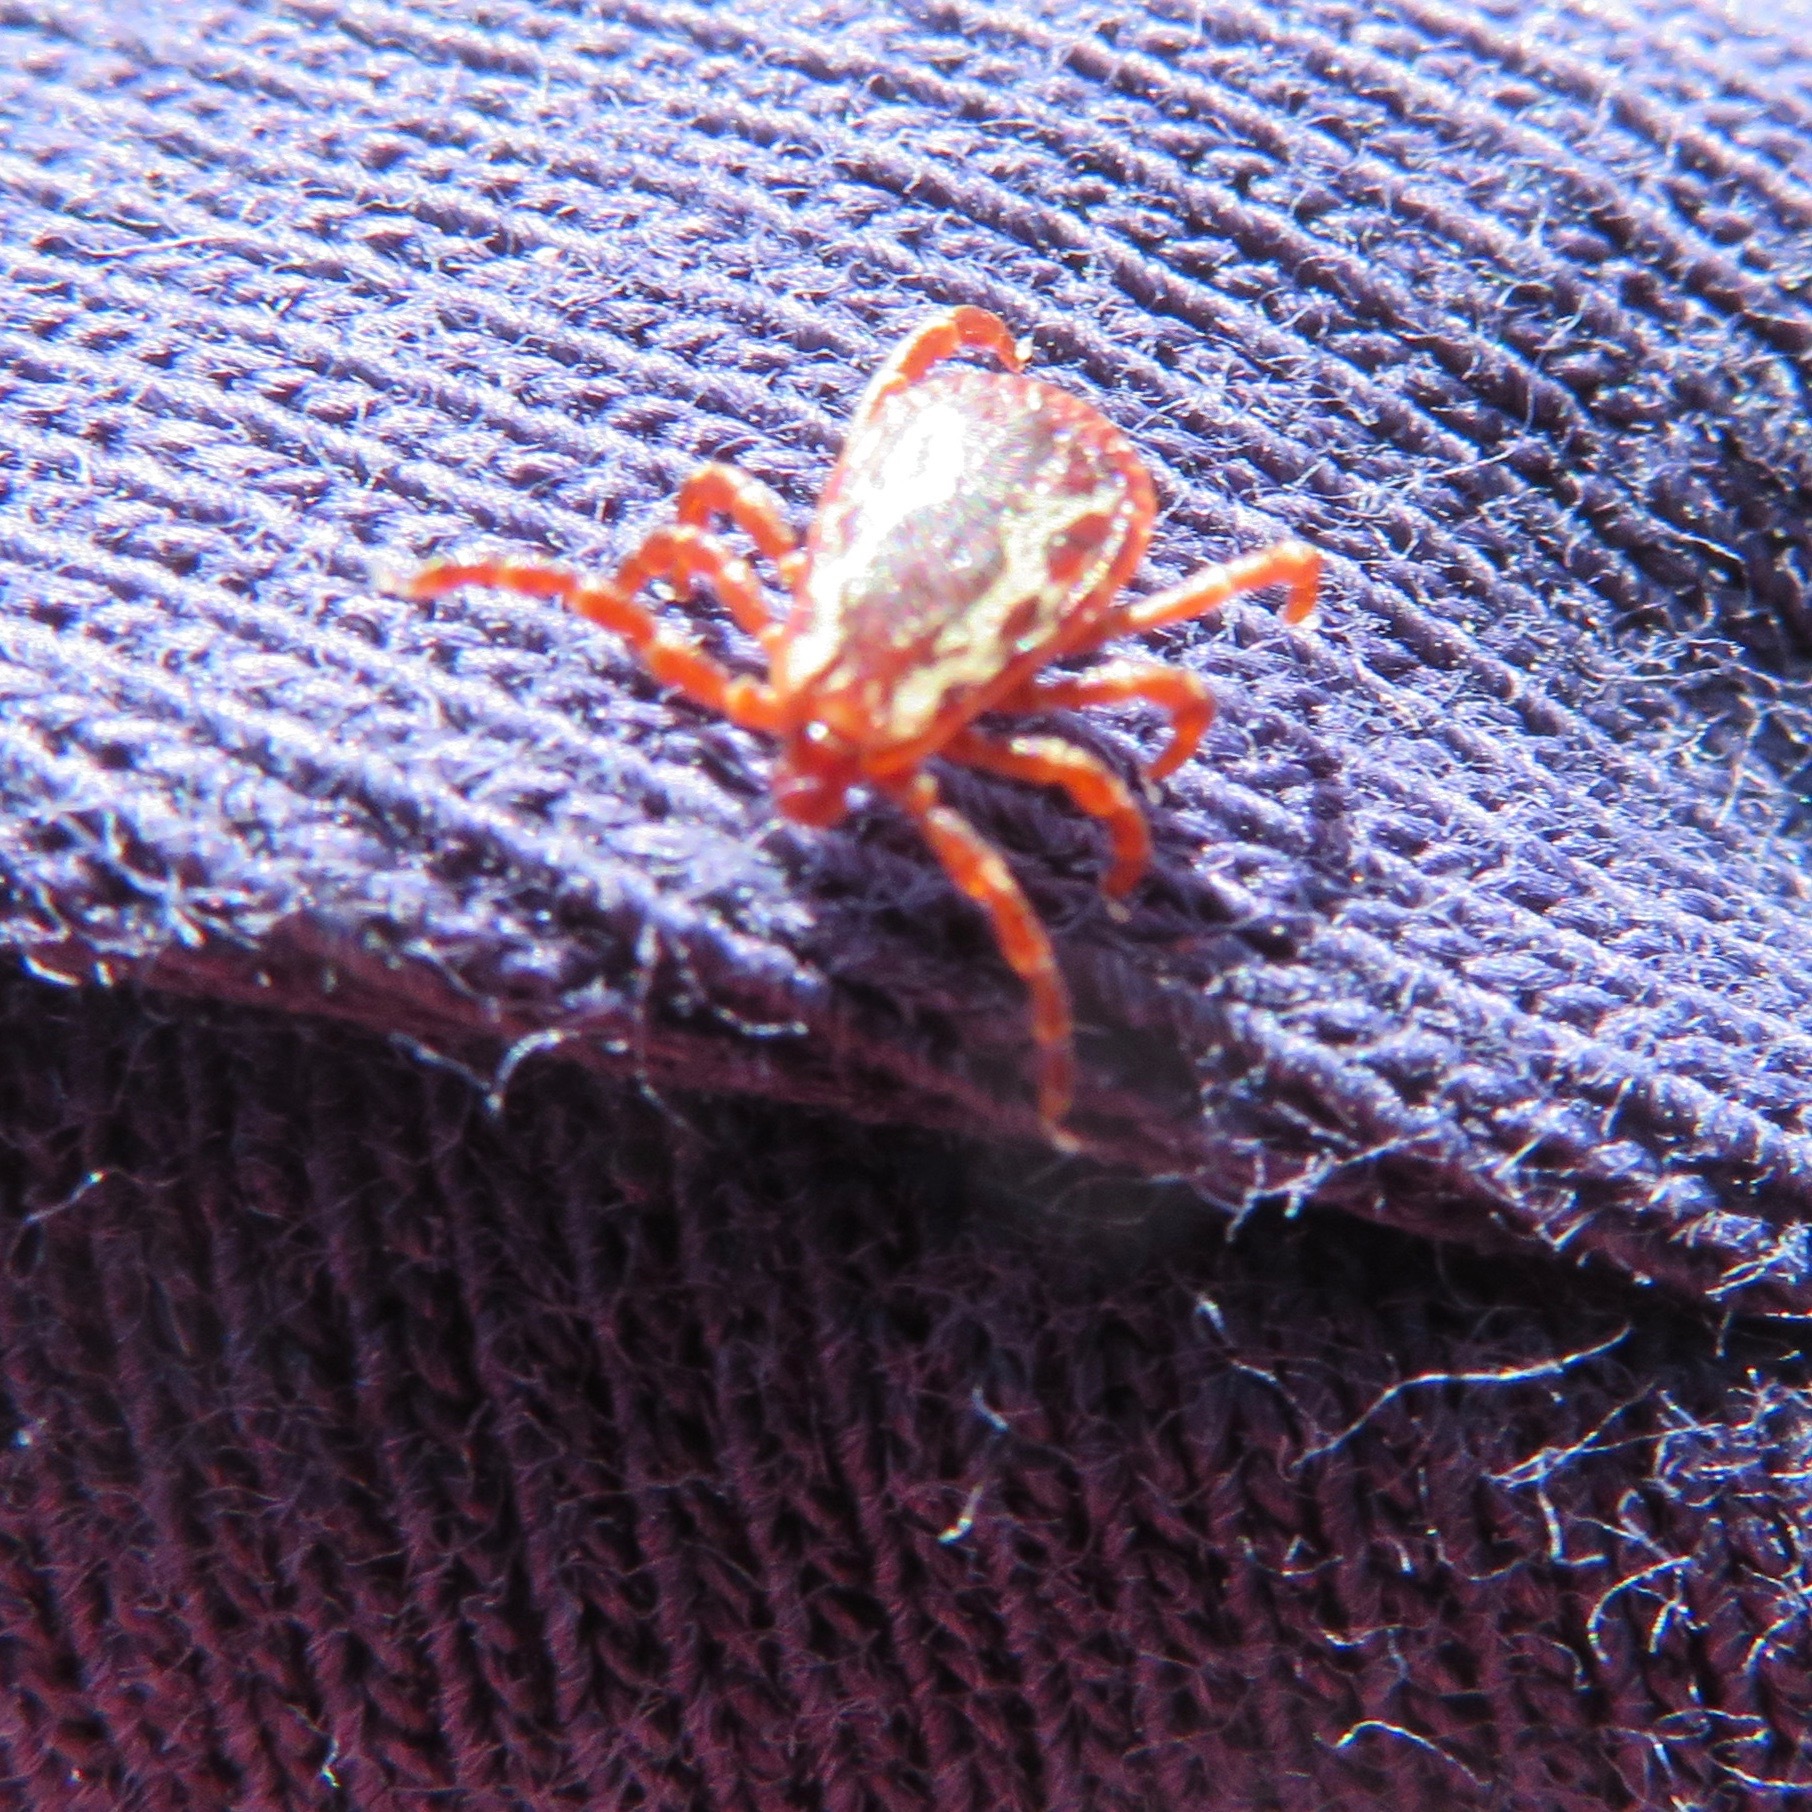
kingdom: Animalia
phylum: Arthropoda
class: Arachnida
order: Ixodida
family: Ixodidae
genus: Dermacentor
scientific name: Dermacentor variabilis
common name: American dog tick
